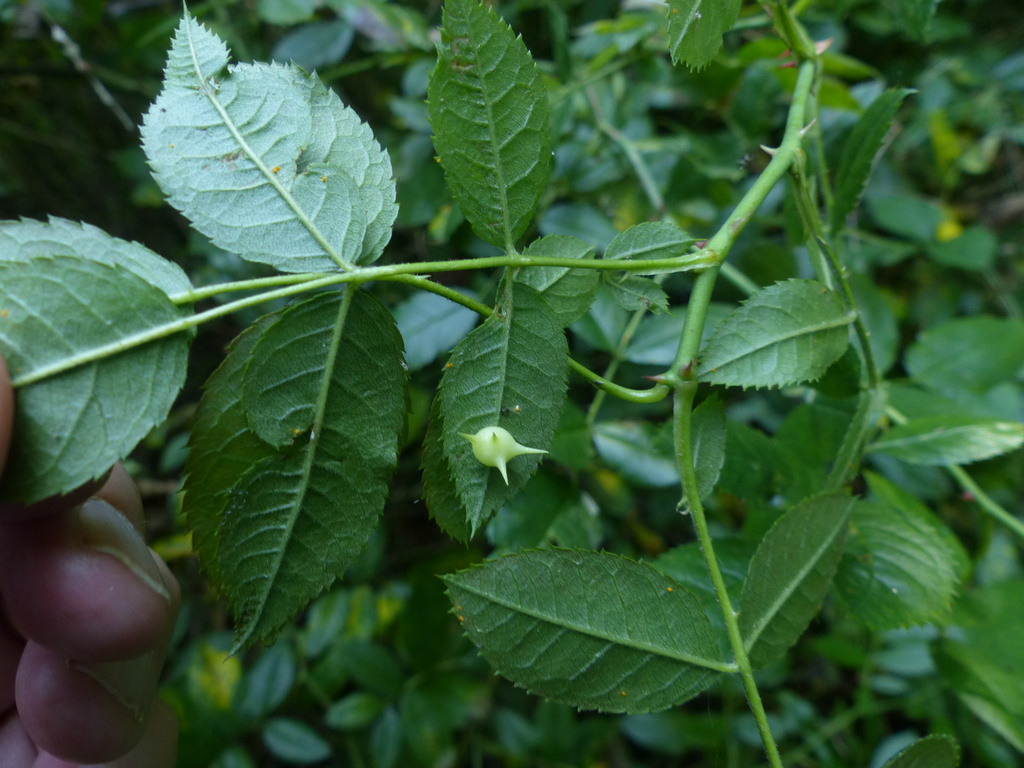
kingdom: Animalia
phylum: Arthropoda
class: Insecta
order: Hymenoptera
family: Cynipidae
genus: Diplolepis
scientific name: Diplolepis nervosa
